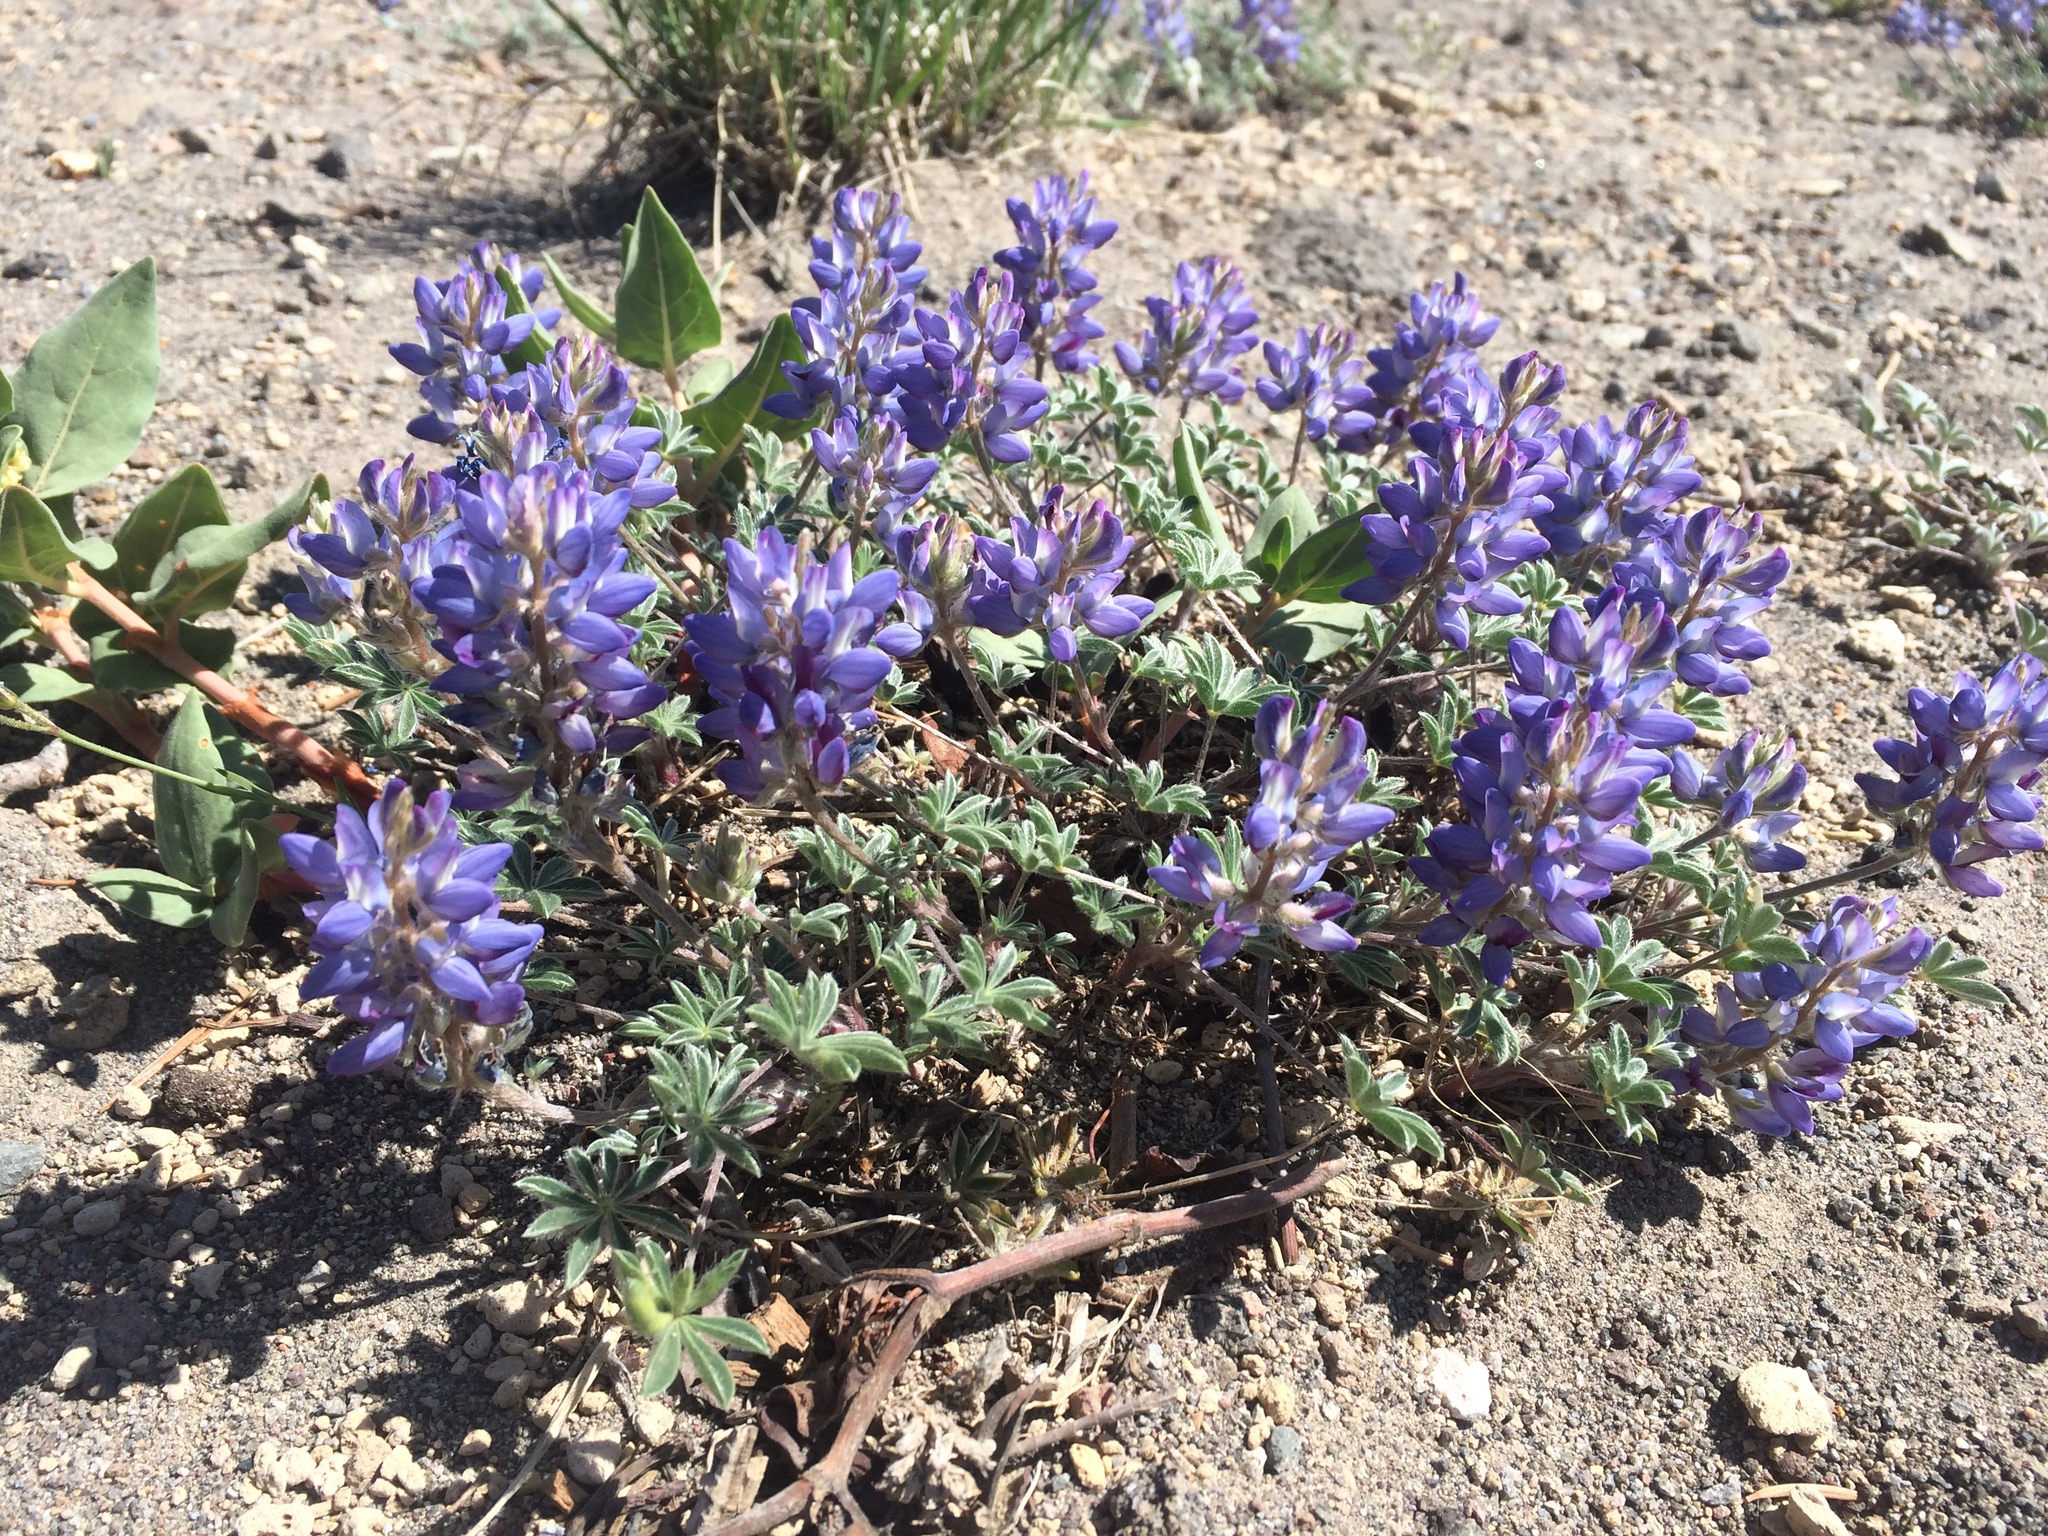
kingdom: Plantae
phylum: Tracheophyta
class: Magnoliopsida
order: Fabales
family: Fabaceae
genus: Lupinus
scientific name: Lupinus lepidus
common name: Prairie lupine
